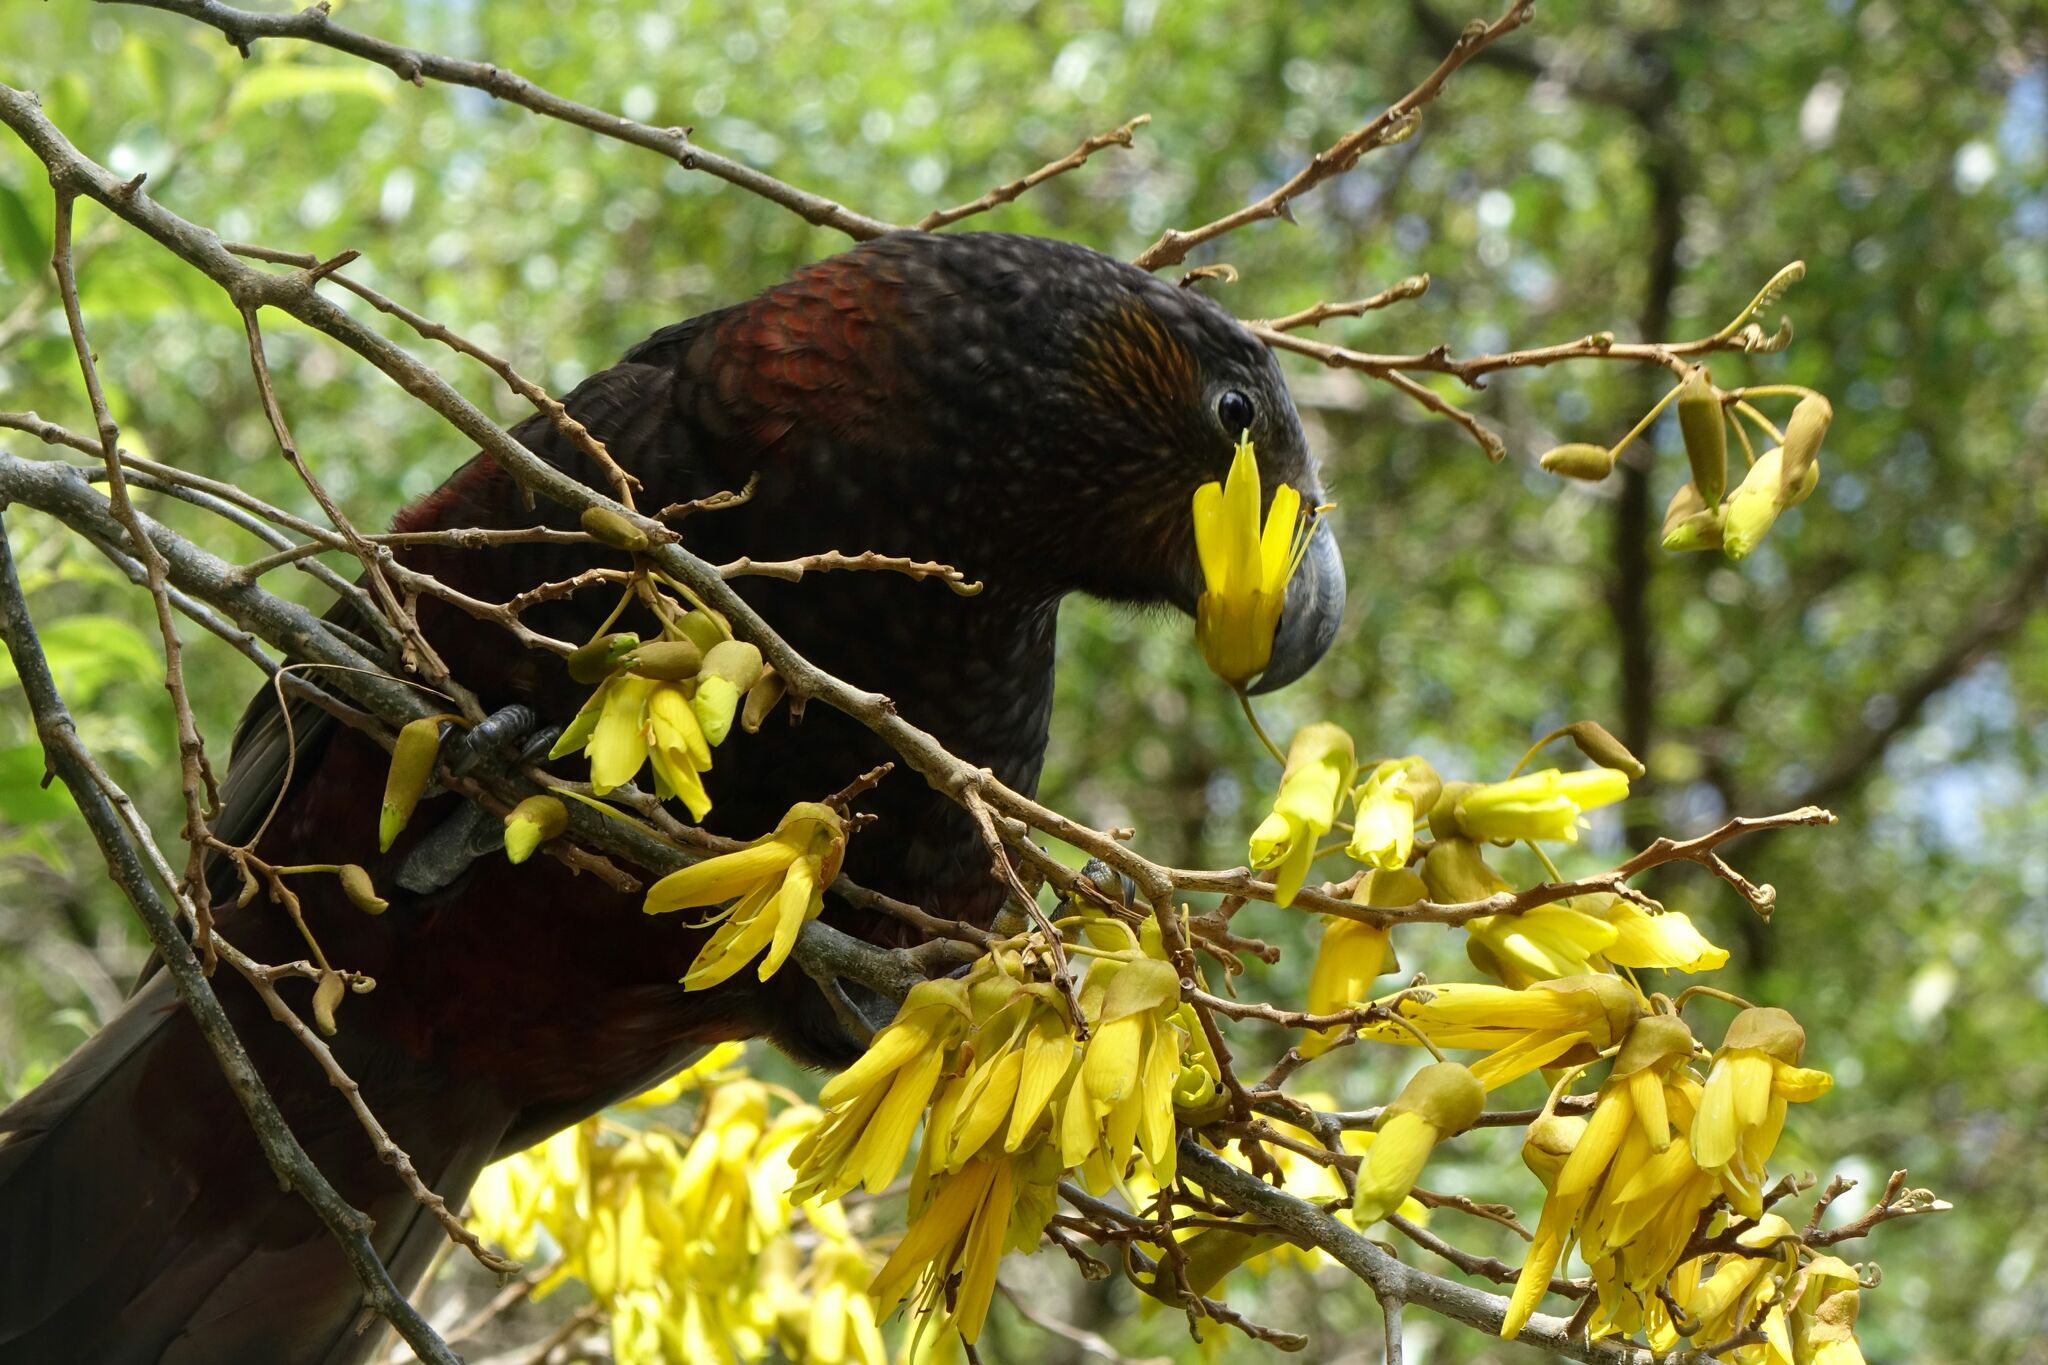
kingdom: Animalia
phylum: Chordata
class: Aves
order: Psittaciformes
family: Psittacidae
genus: Nestor
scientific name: Nestor meridionalis
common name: New zealand kaka
